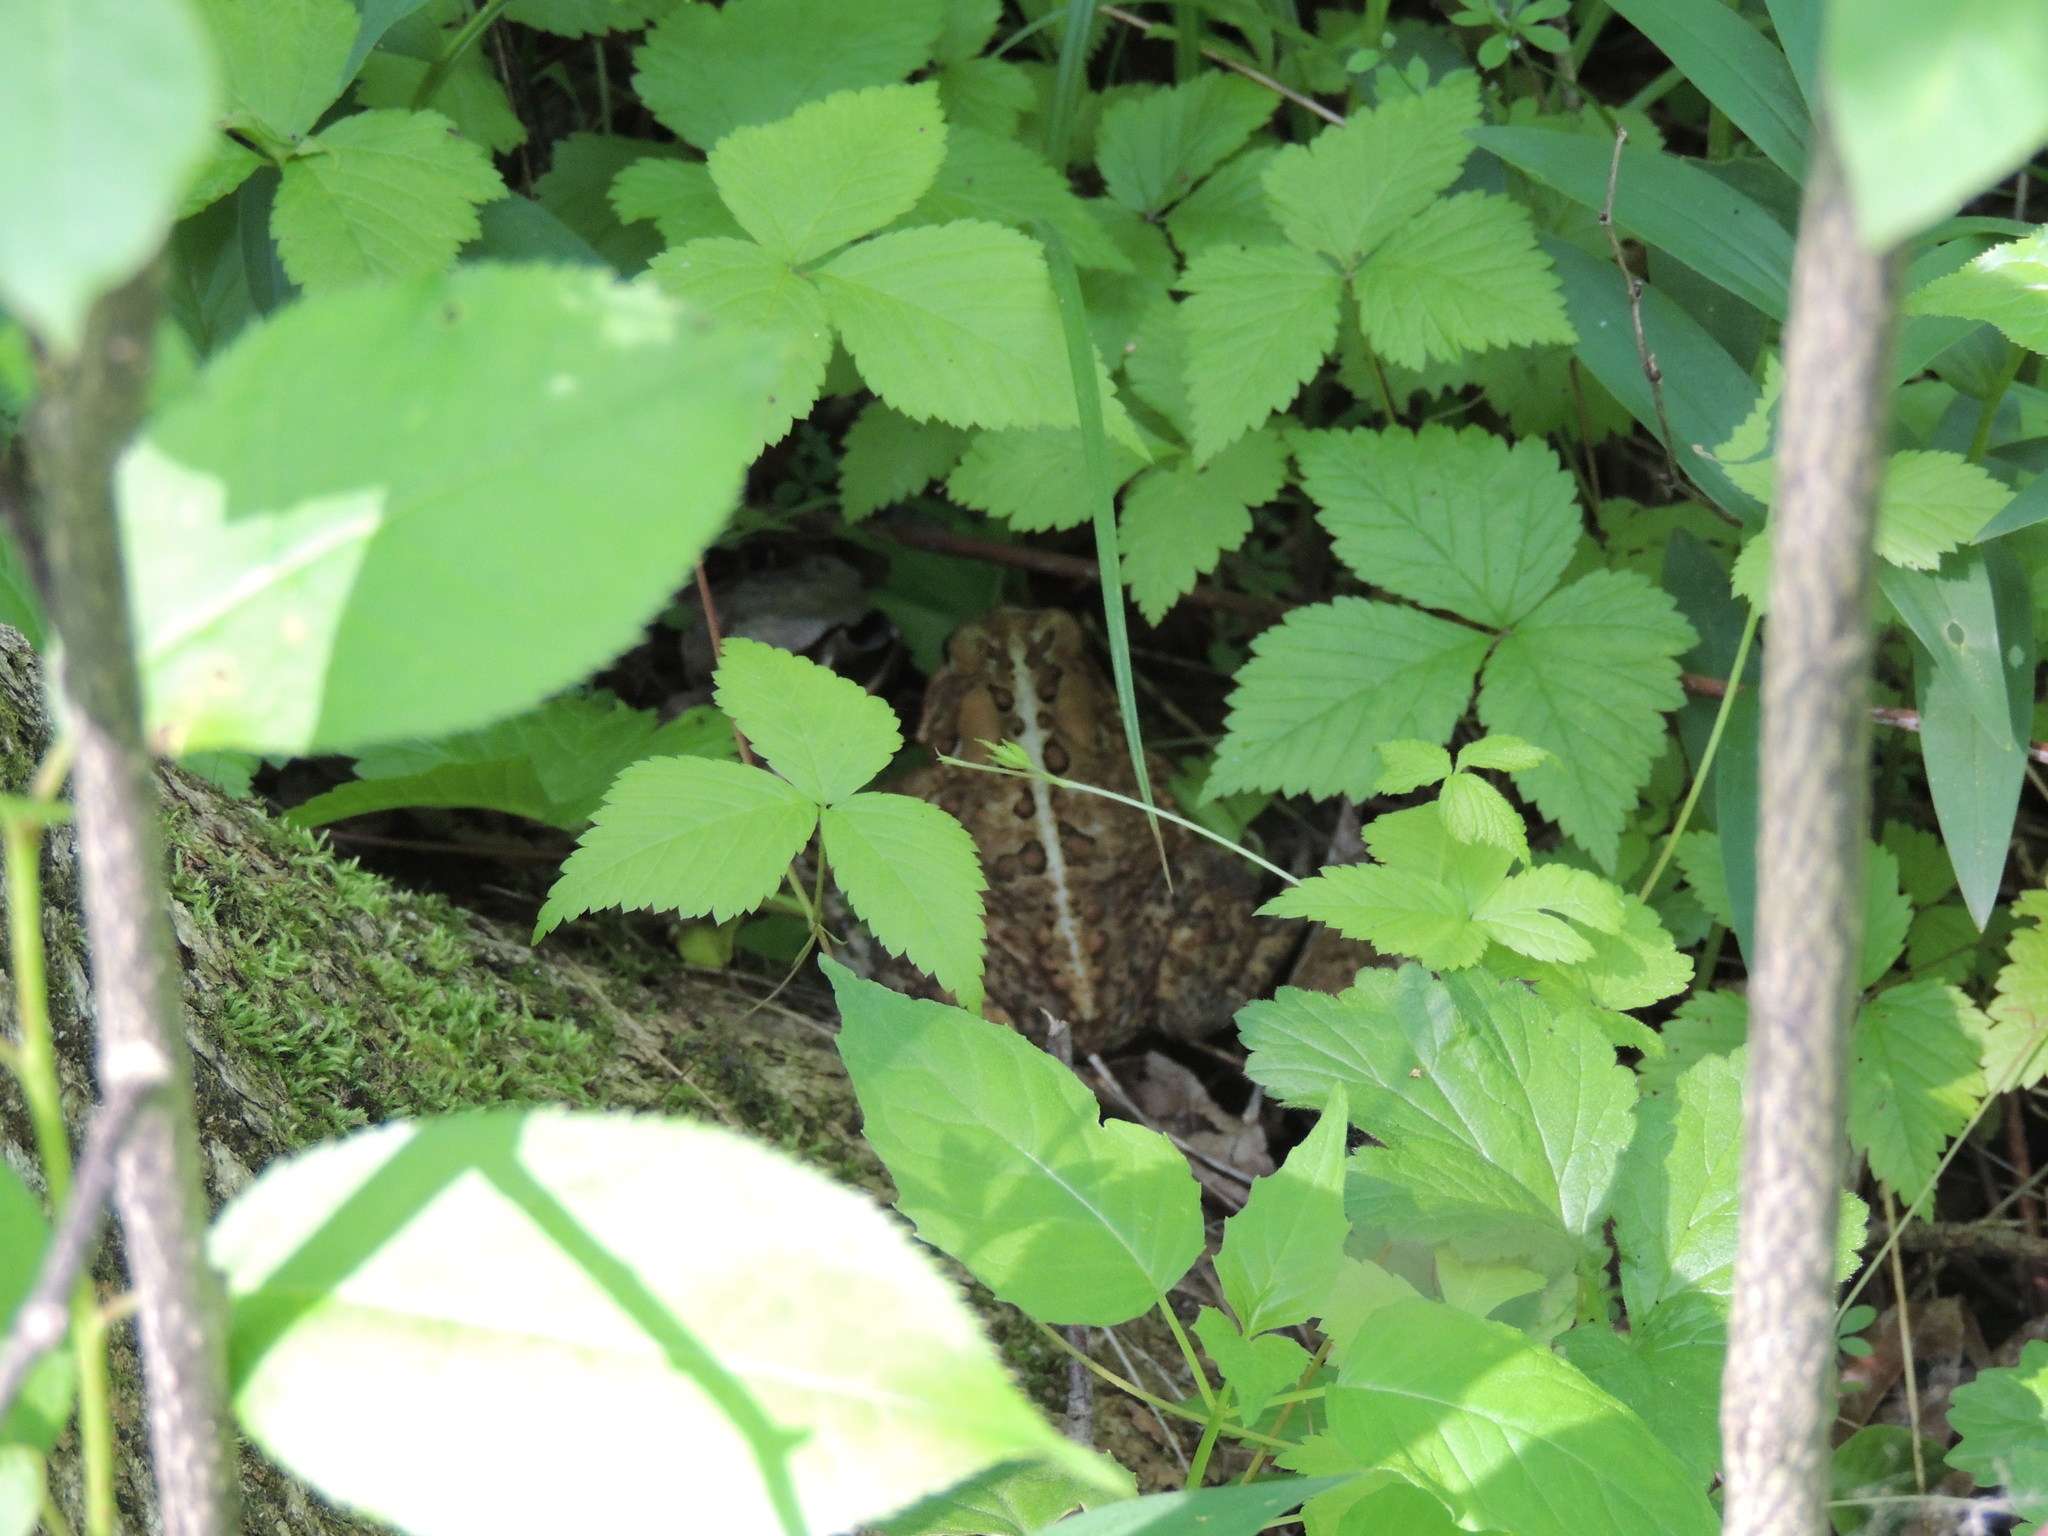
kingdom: Plantae
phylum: Tracheophyta
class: Magnoliopsida
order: Rosales
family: Rosaceae
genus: Rubus
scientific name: Rubus pubescens
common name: Dwarf raspberry
